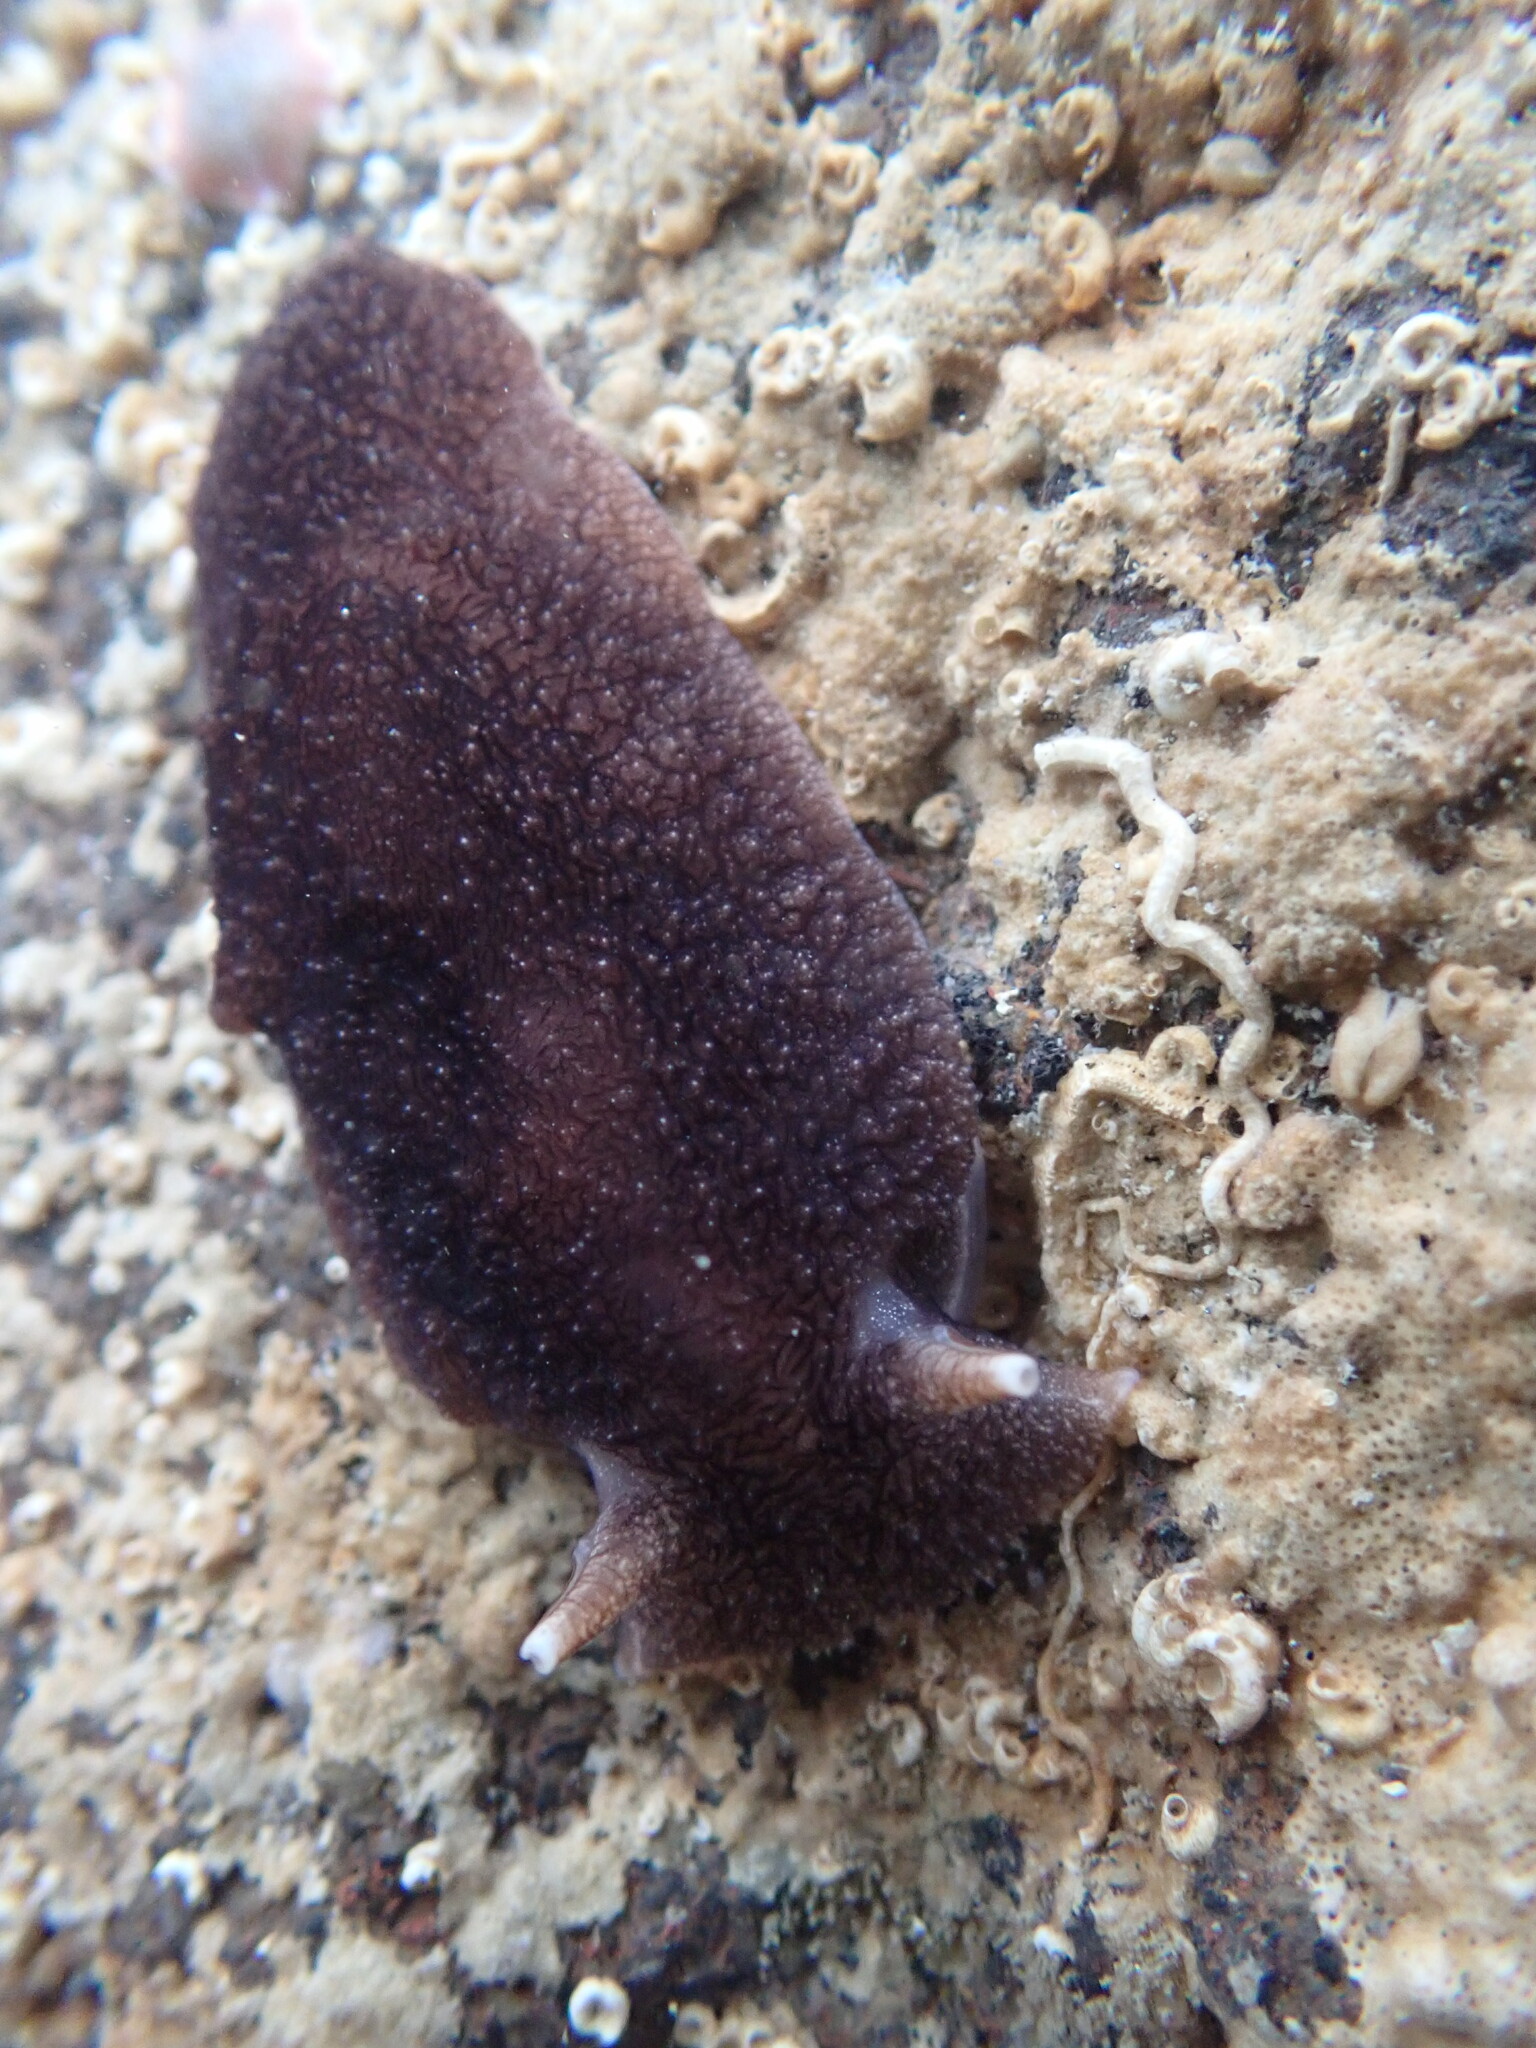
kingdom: Animalia
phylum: Mollusca
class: Gastropoda
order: Pleurobranchida
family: Pleurobranchaeidae
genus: Pleurobranchaea
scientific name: Pleurobranchaea maculata
